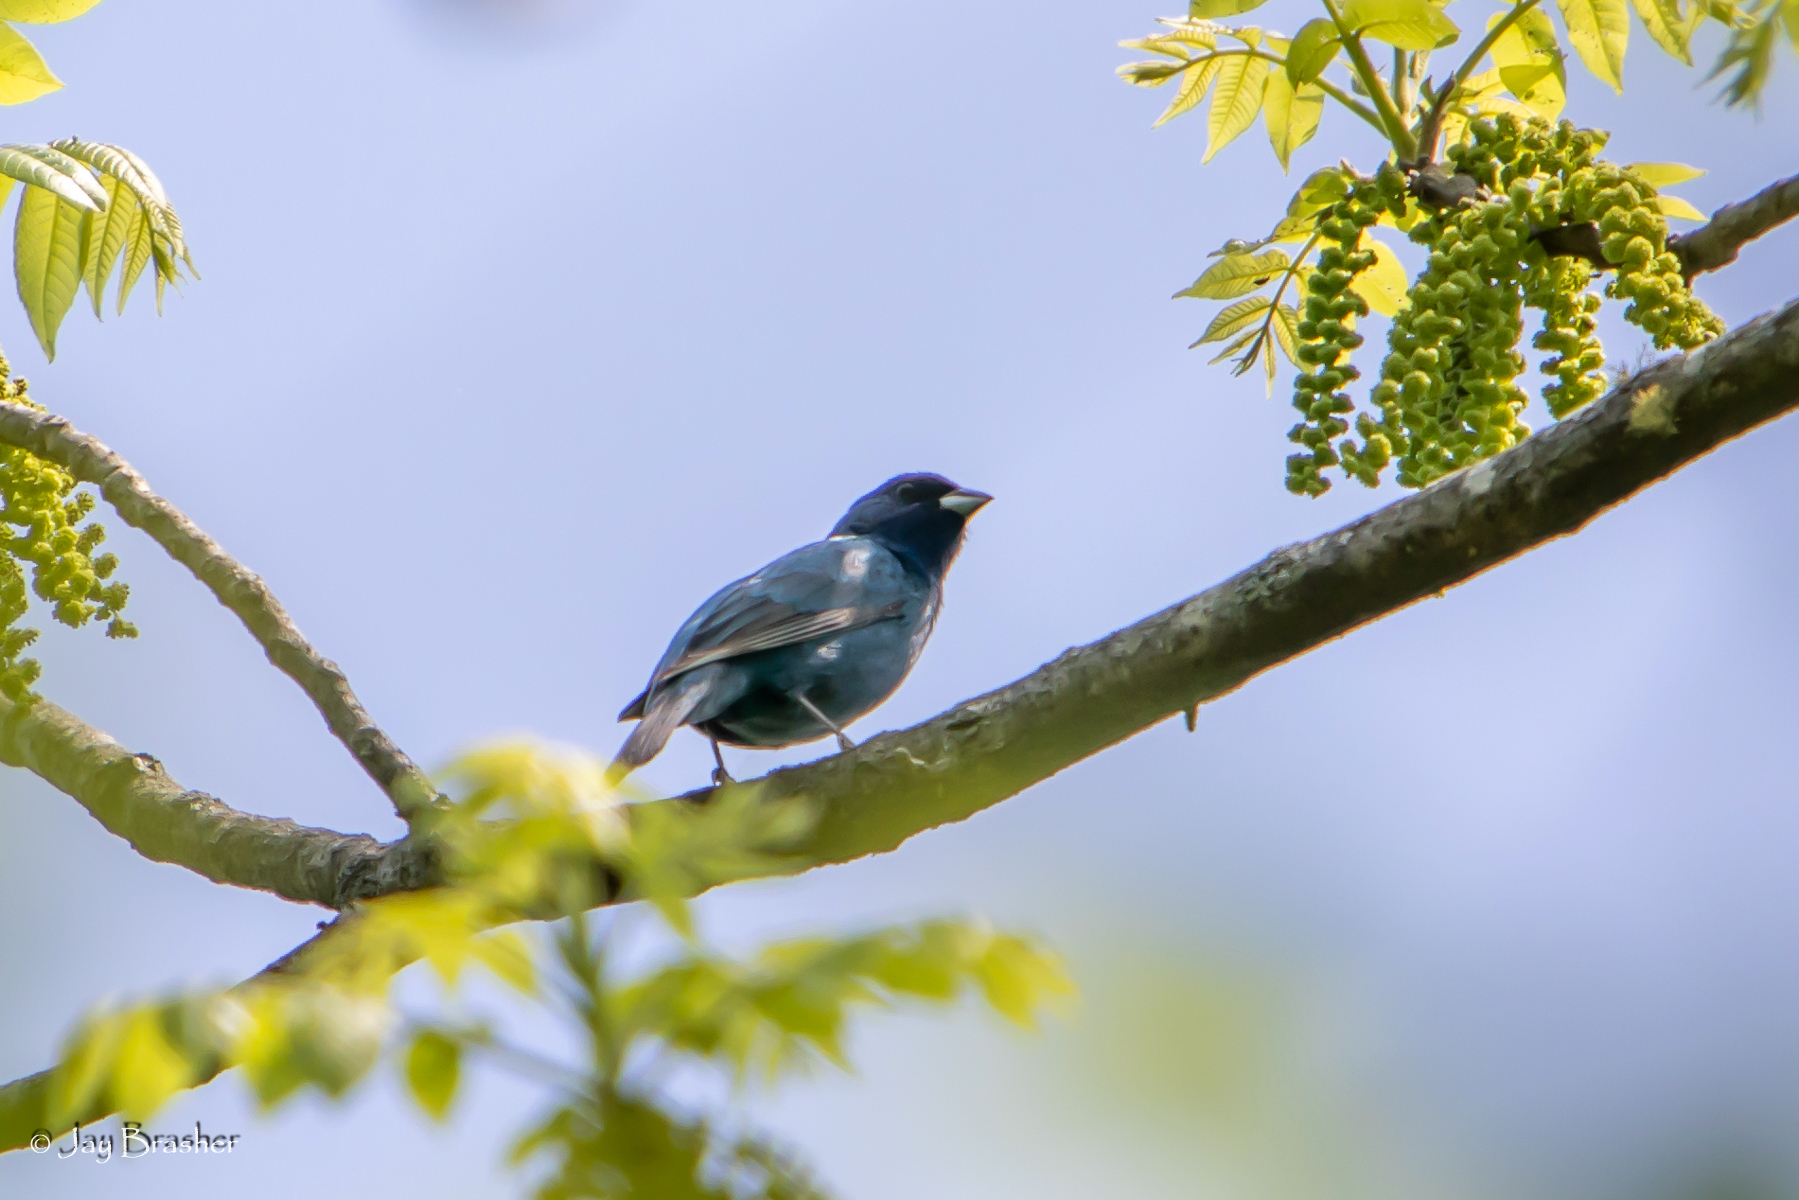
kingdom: Animalia
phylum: Chordata
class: Aves
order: Passeriformes
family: Cardinalidae
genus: Passerina
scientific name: Passerina cyanea
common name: Indigo bunting
